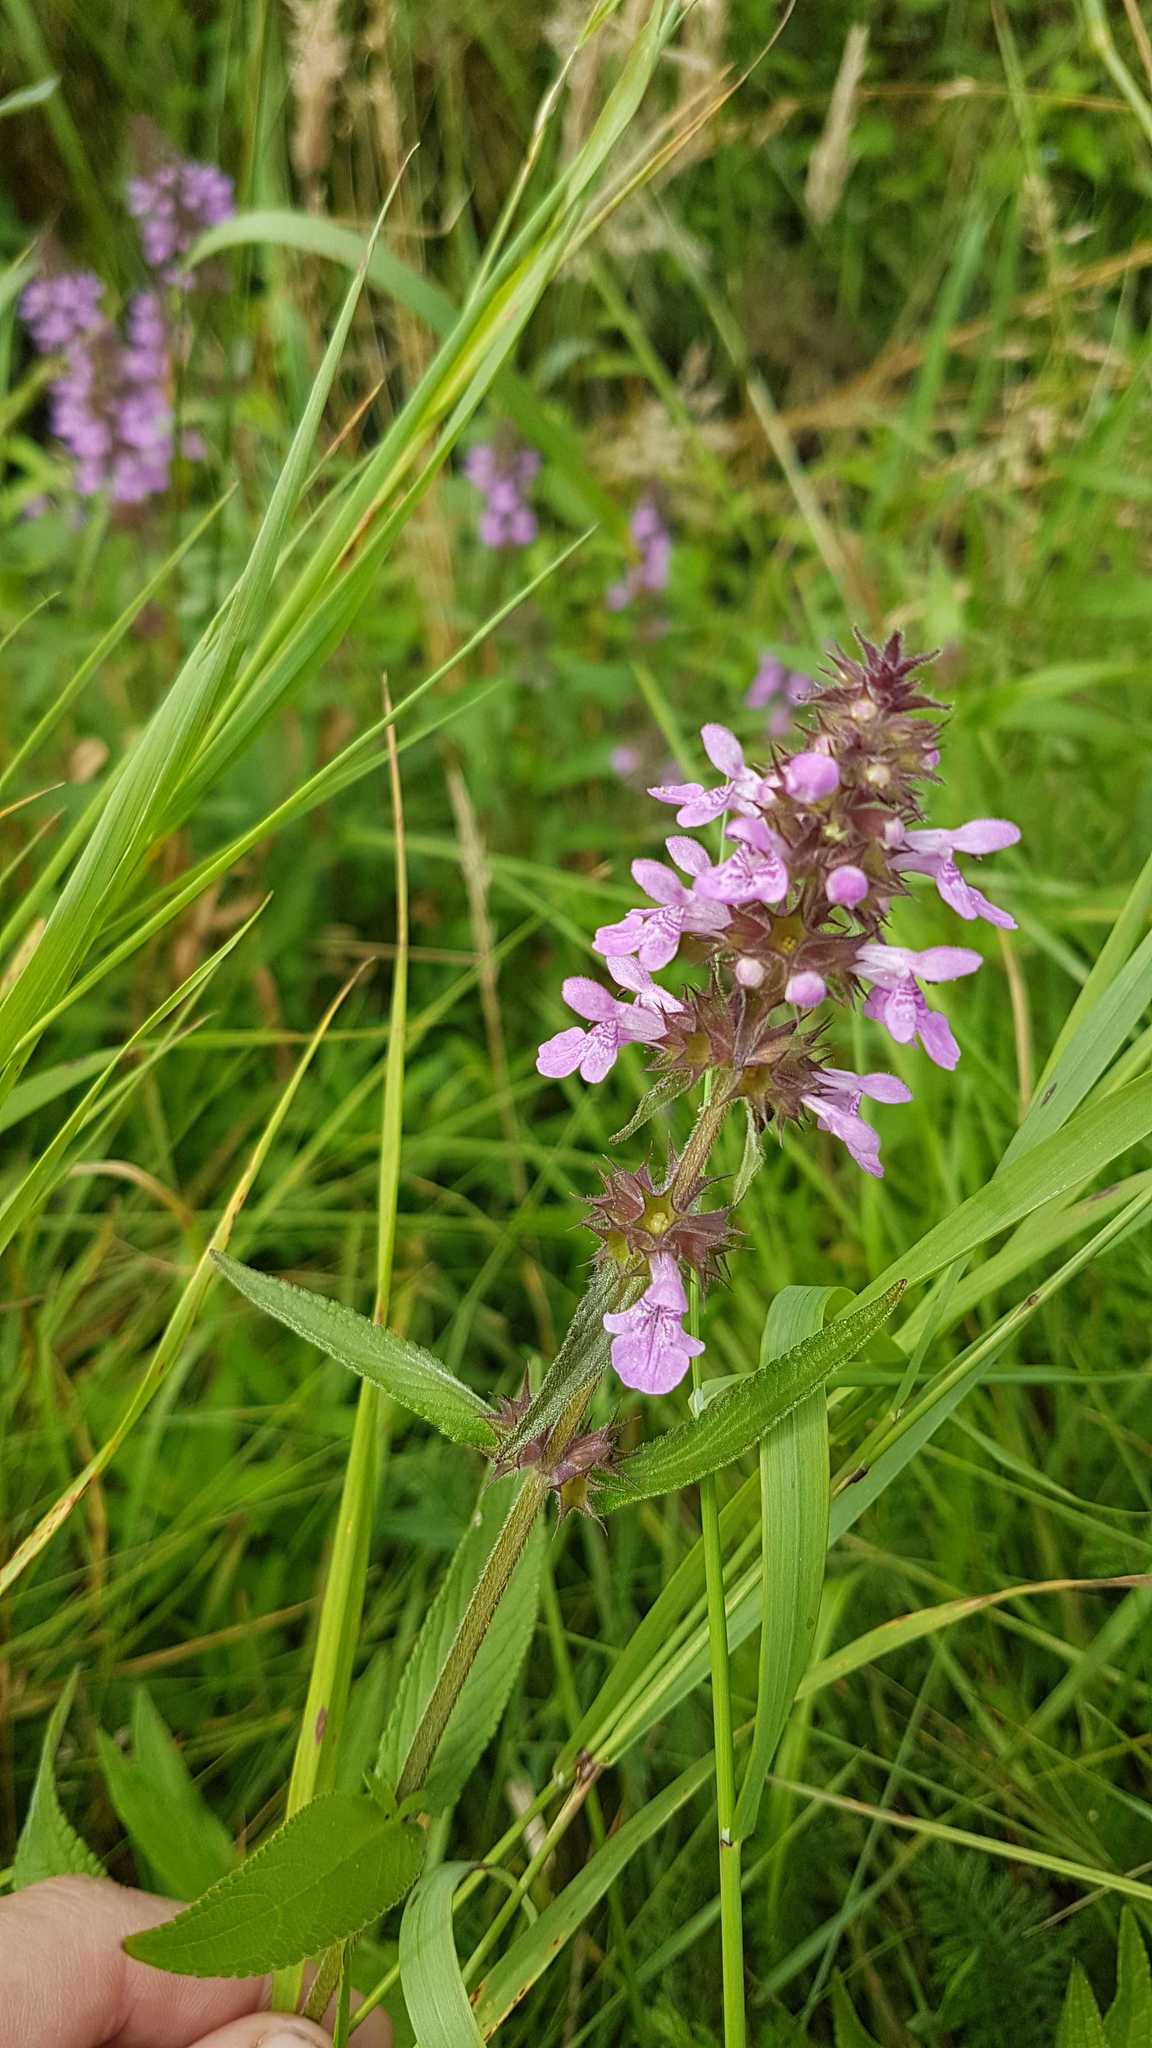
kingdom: Plantae
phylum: Tracheophyta
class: Magnoliopsida
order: Lamiales
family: Lamiaceae
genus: Stachys
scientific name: Stachys palustris
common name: Marsh woundwort
